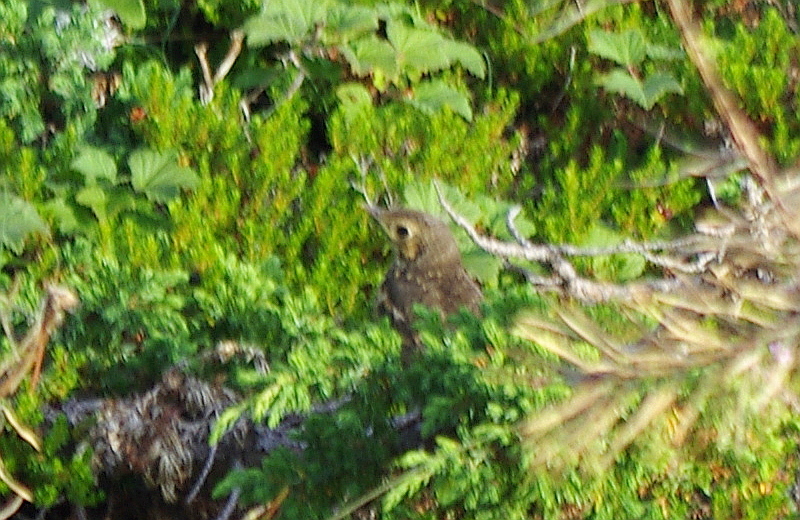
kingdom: Animalia
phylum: Chordata
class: Aves
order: Passeriformes
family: Turdidae
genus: Turdus
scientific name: Turdus philomelos
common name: Song thrush
